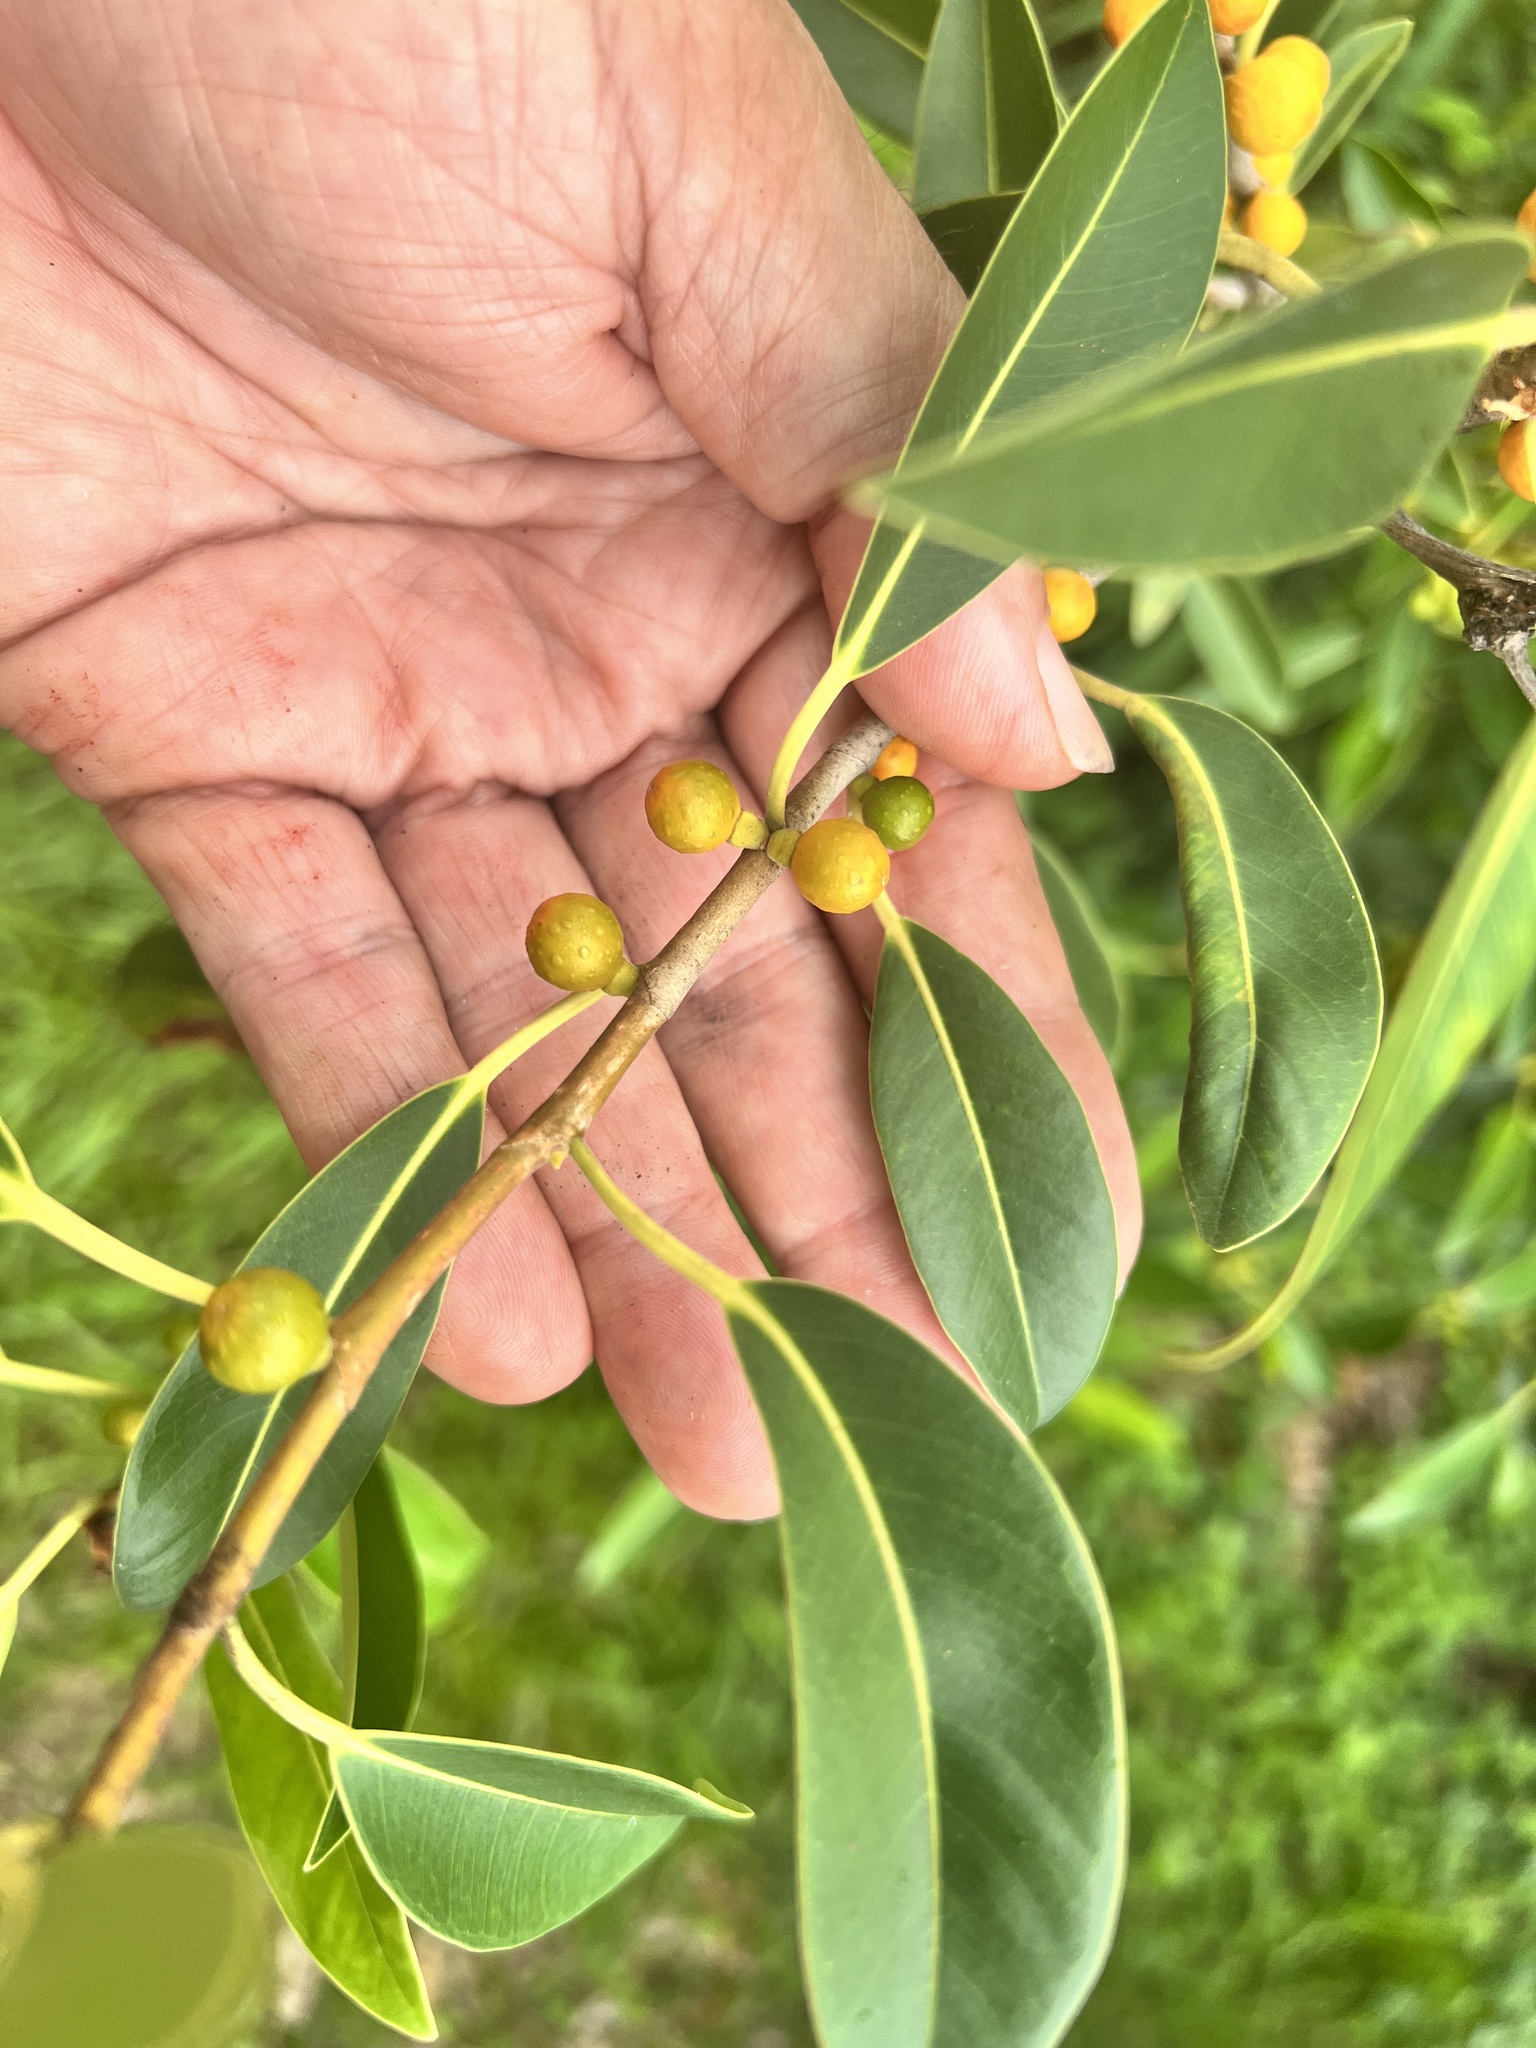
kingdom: Plantae
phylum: Tracheophyta
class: Magnoliopsida
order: Rosales
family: Moraceae
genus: Ficus
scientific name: Ficus rubiginosa
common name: Port jackson fig
